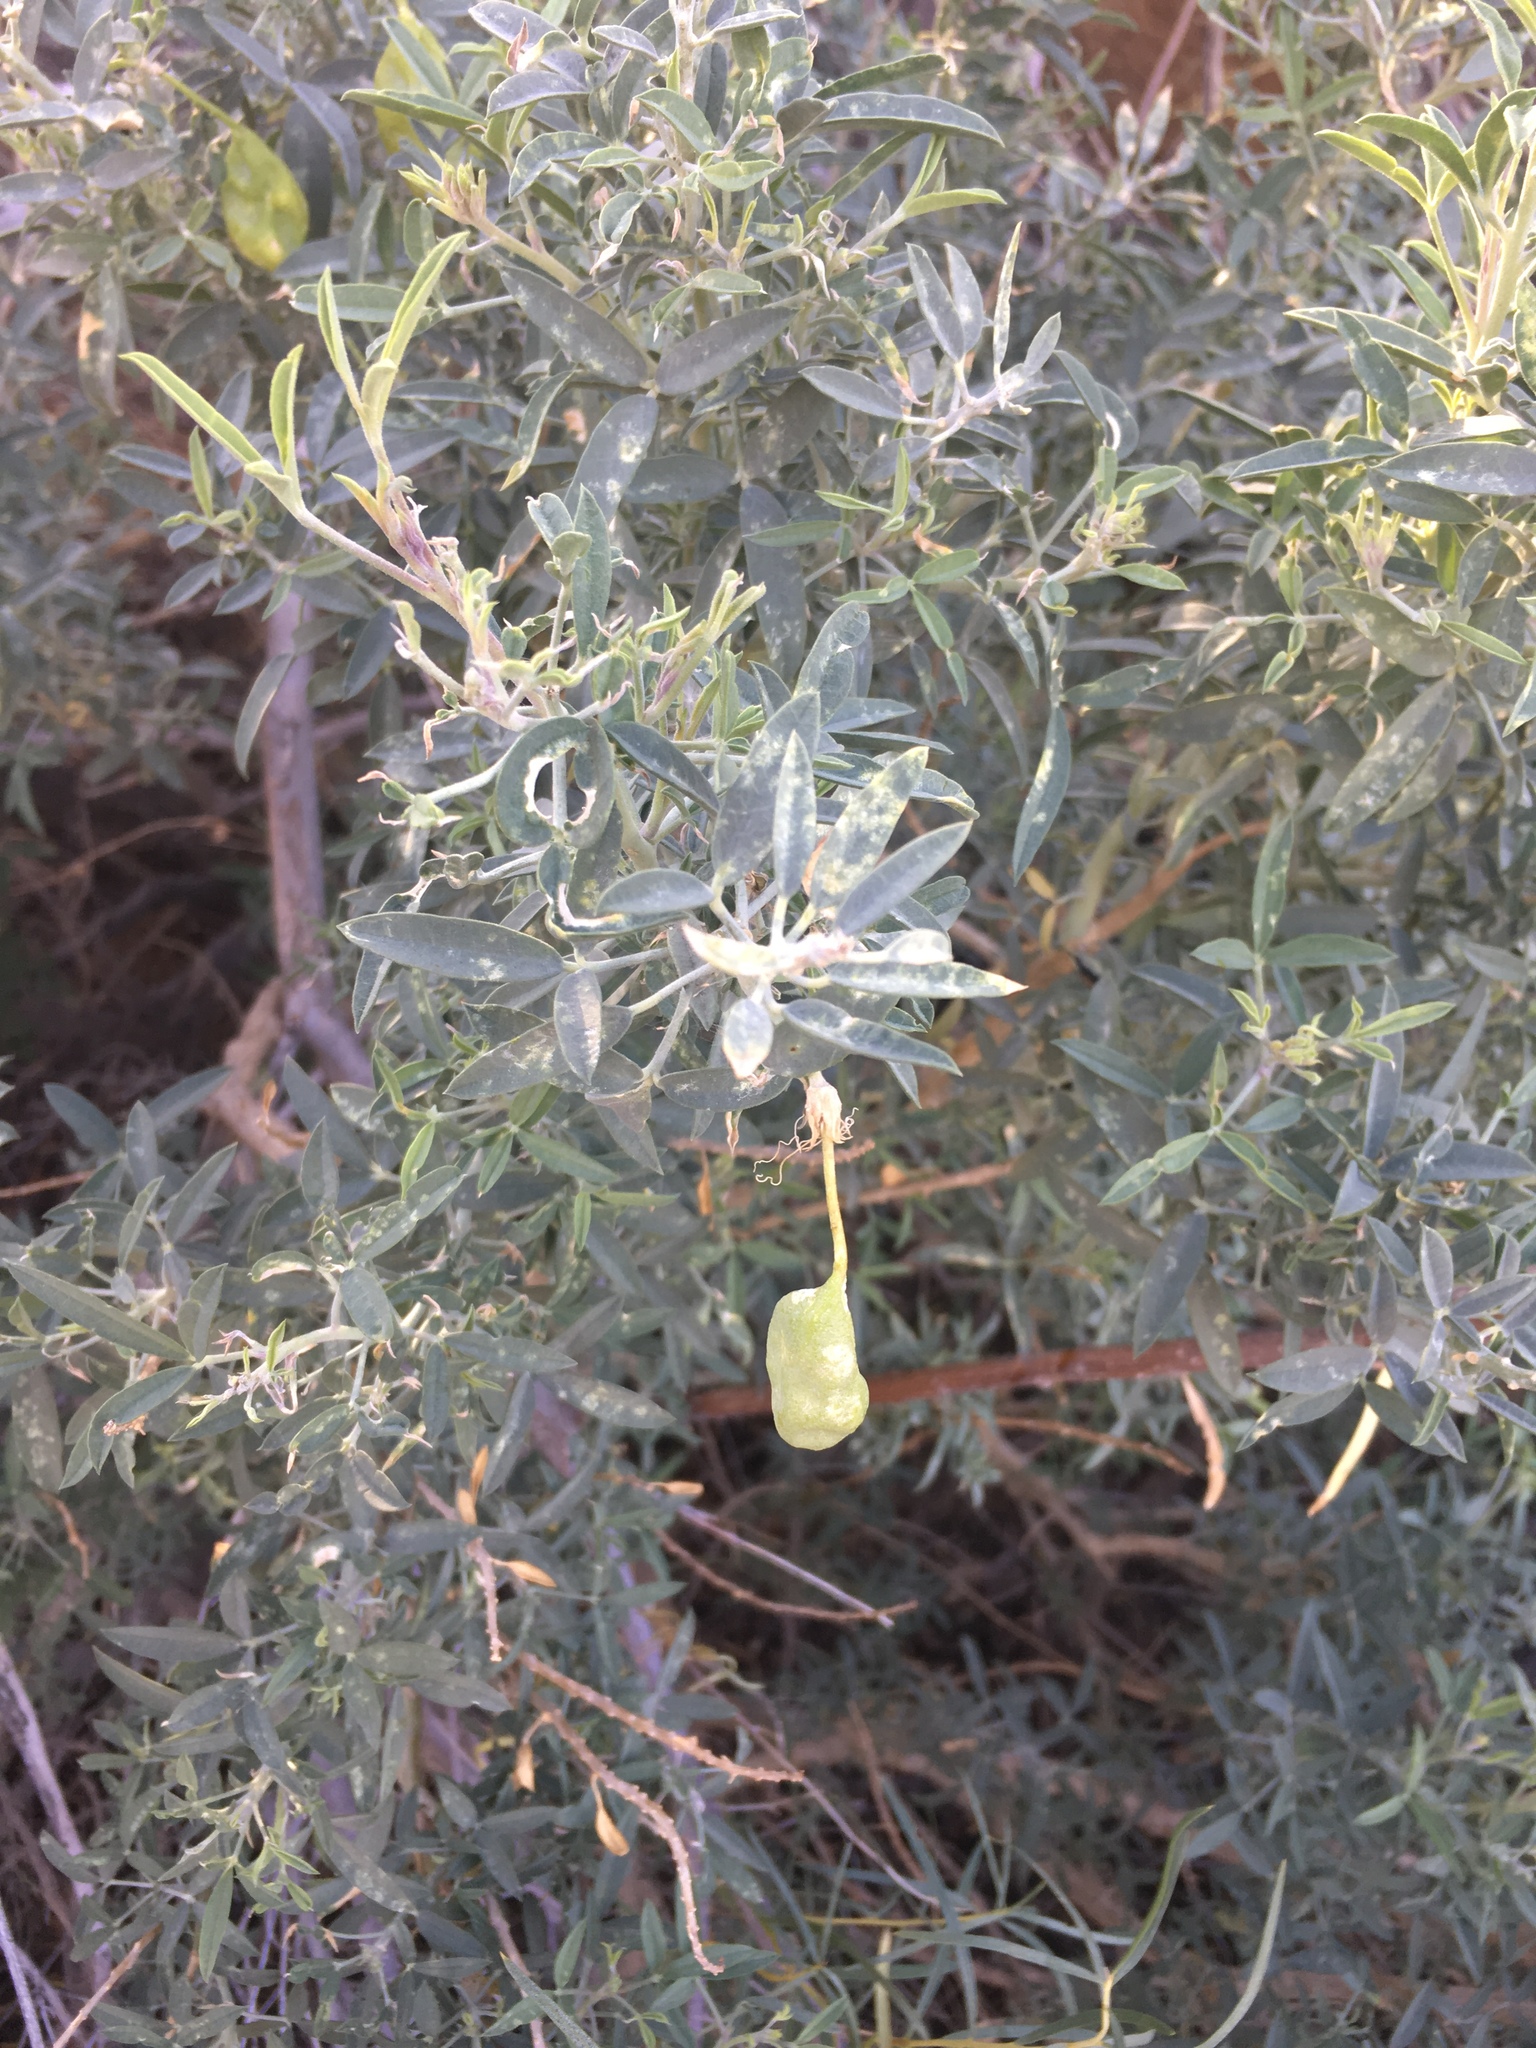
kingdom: Plantae
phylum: Tracheophyta
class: Magnoliopsida
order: Brassicales
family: Cleomaceae
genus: Cleomella
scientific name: Cleomella arborea
